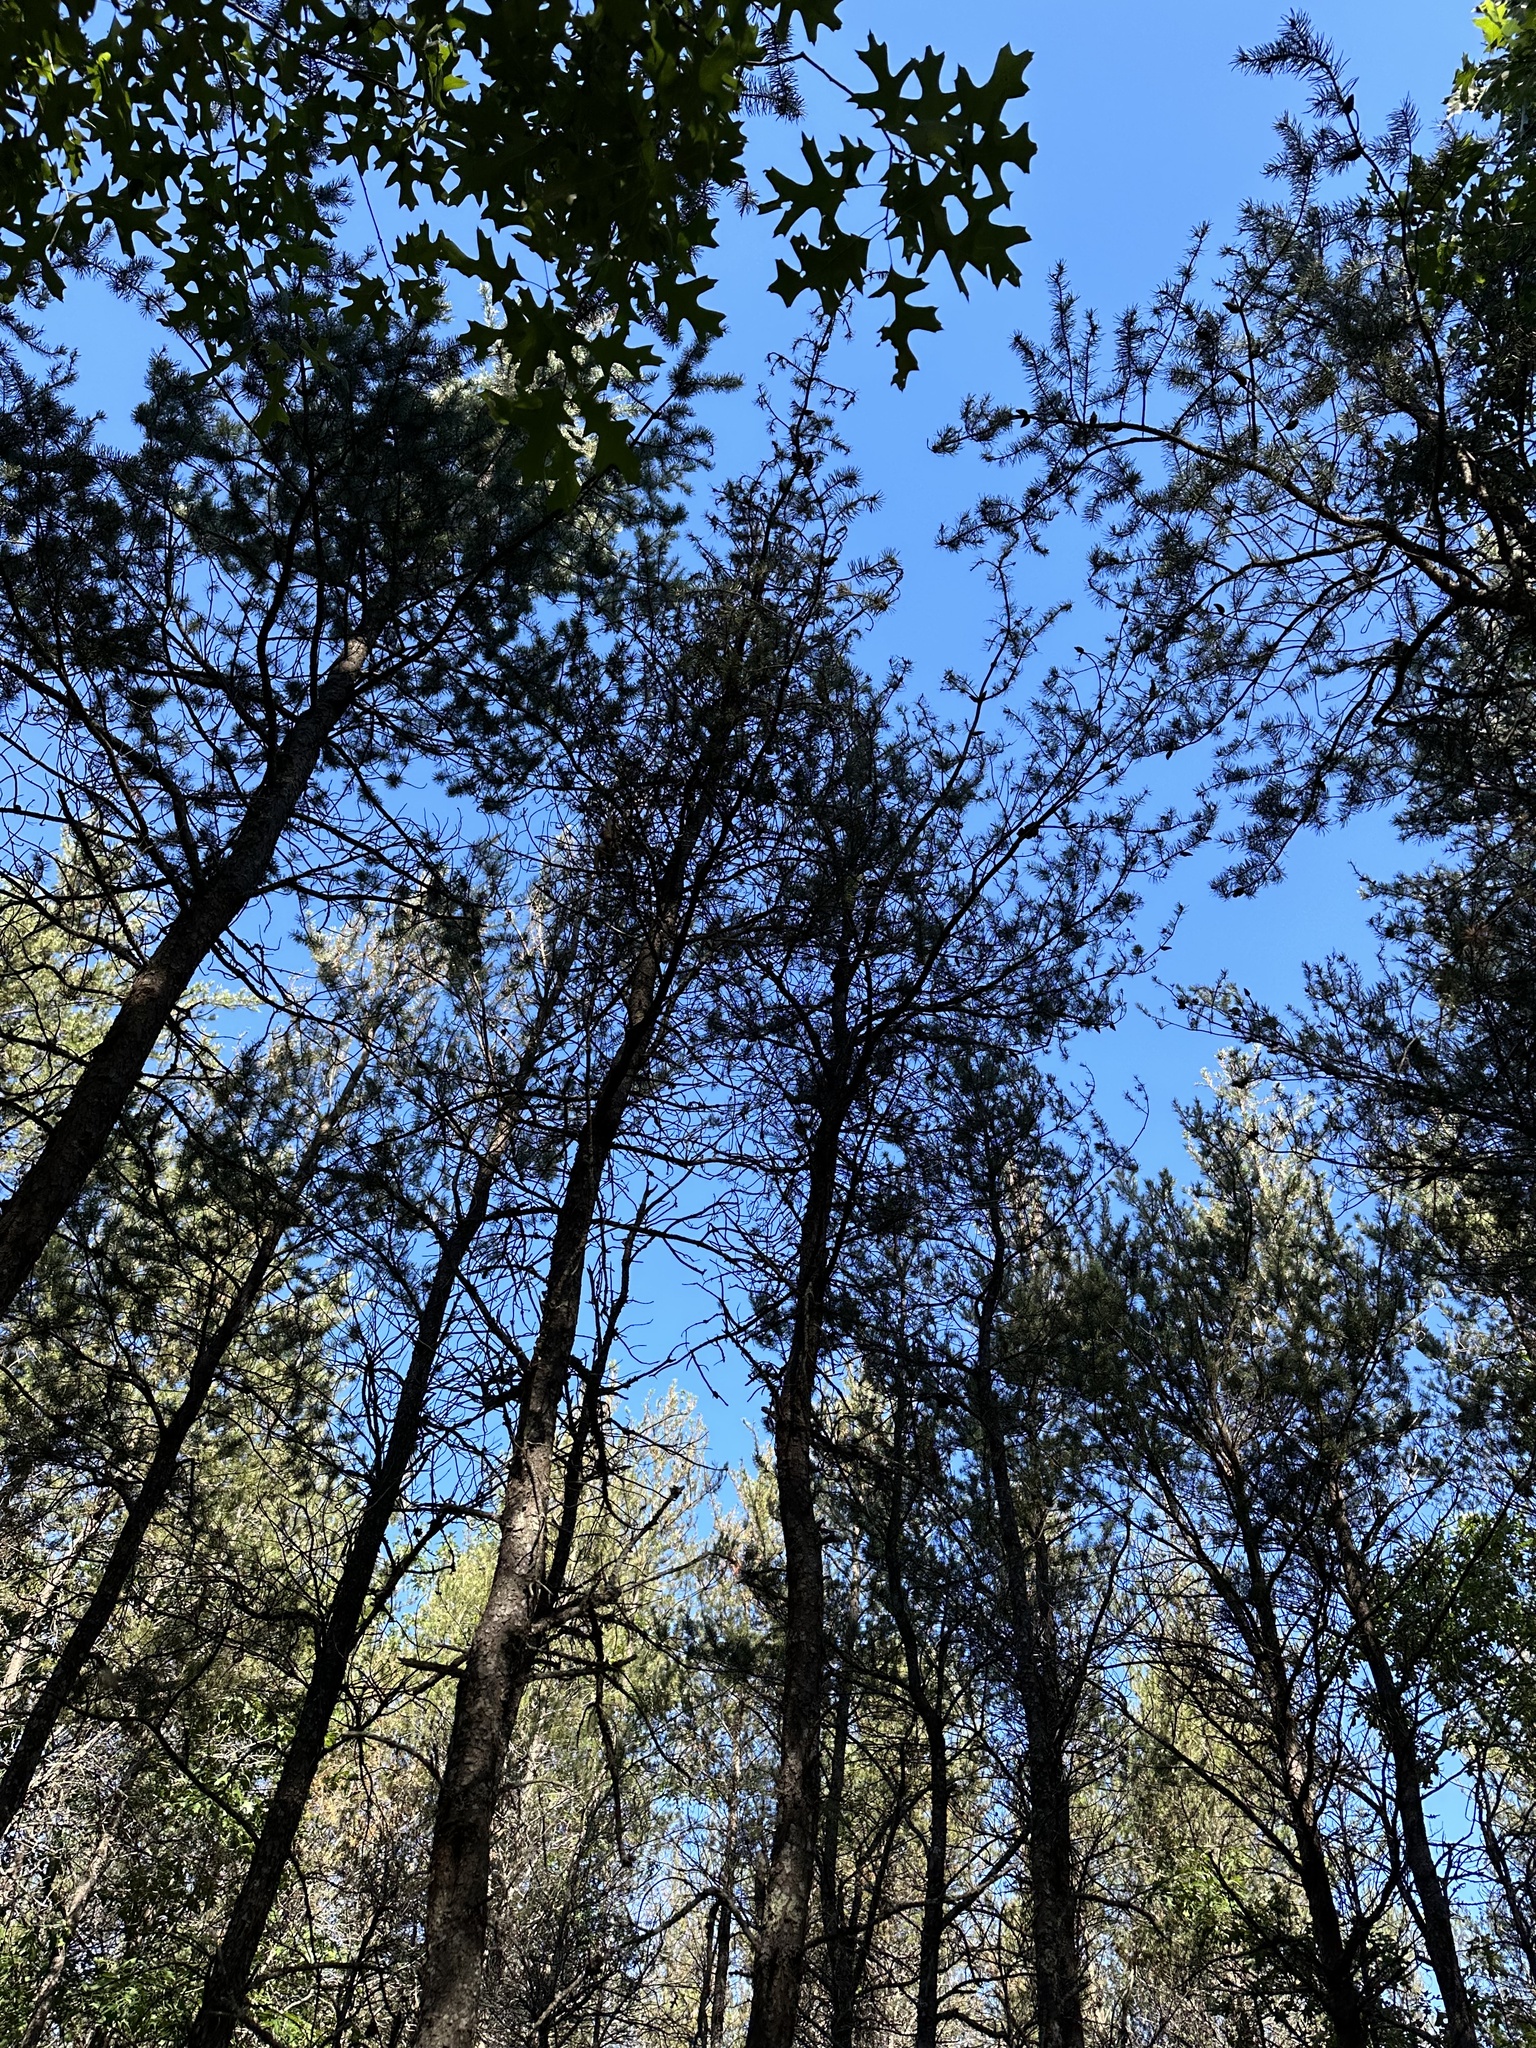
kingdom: Plantae
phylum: Tracheophyta
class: Pinopsida
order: Pinales
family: Pinaceae
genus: Pinus
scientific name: Pinus banksiana
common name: Jack pine
